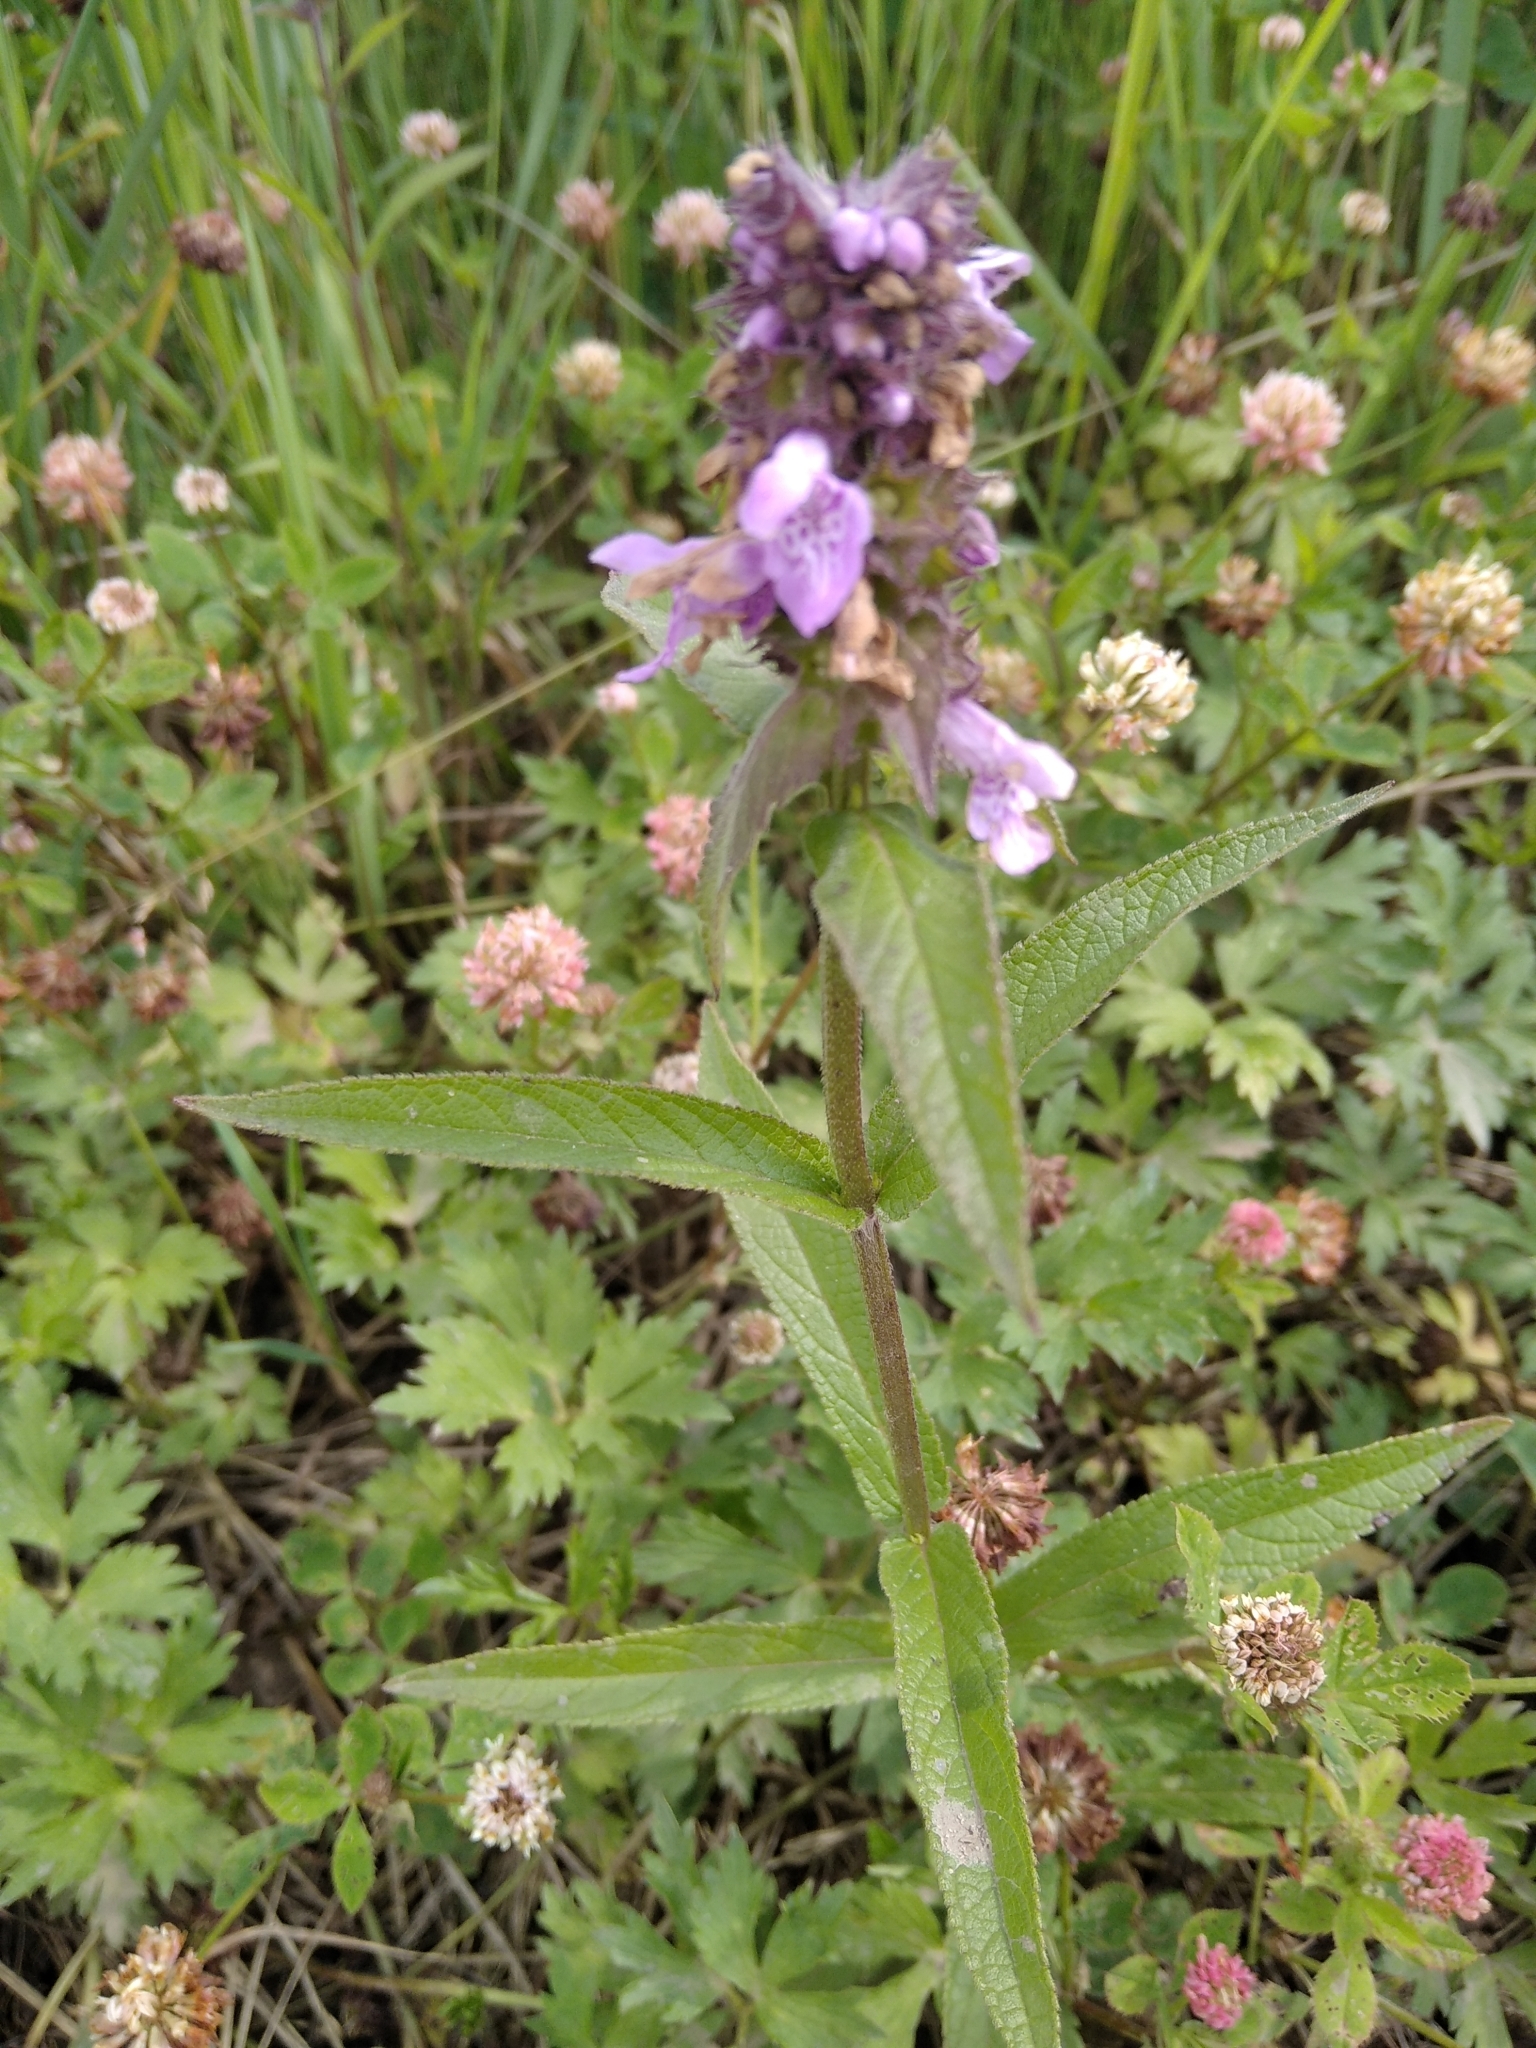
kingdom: Plantae
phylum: Tracheophyta
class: Magnoliopsida
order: Lamiales
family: Lamiaceae
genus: Stachys
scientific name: Stachys palustris
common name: Marsh woundwort
